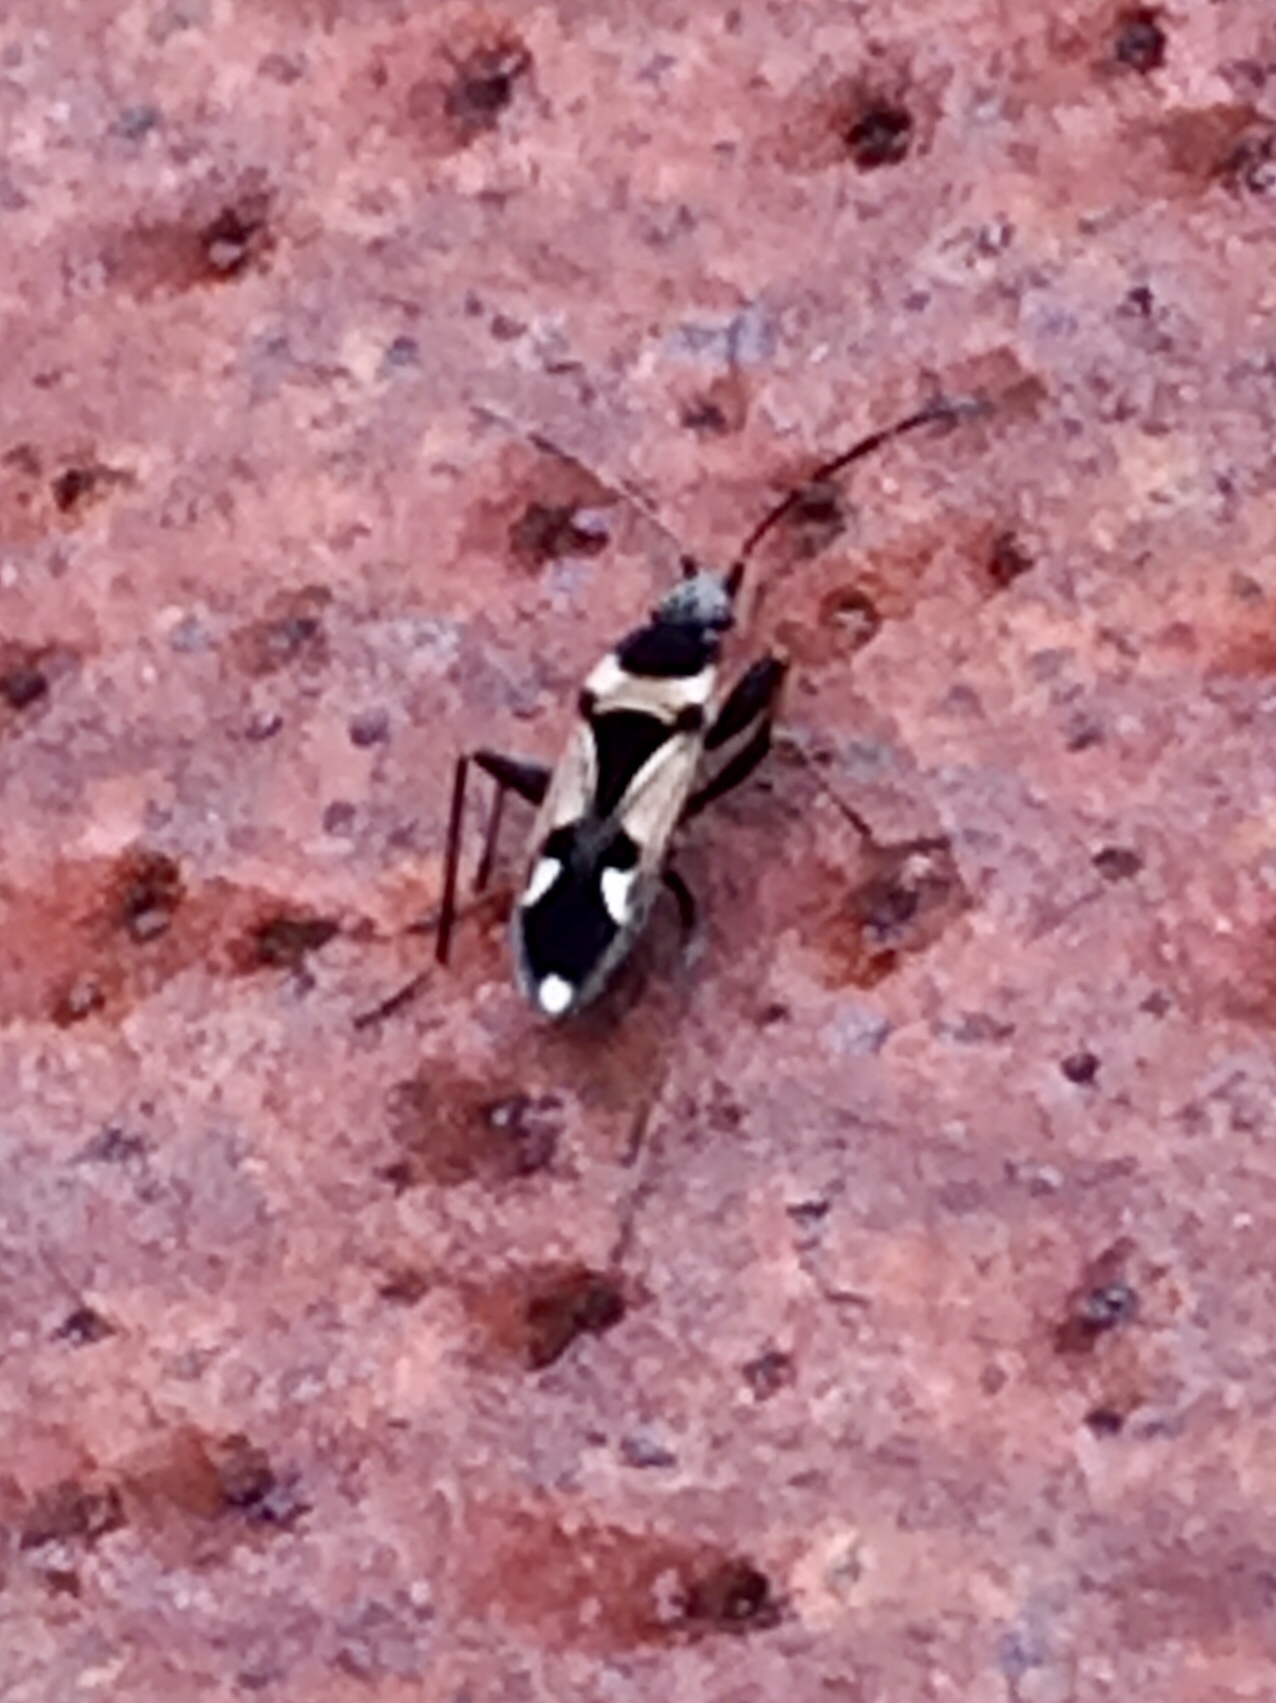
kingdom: Animalia
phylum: Arthropoda
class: Insecta
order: Hemiptera
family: Rhyparochromidae
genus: Raglius
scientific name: Raglius confusus
